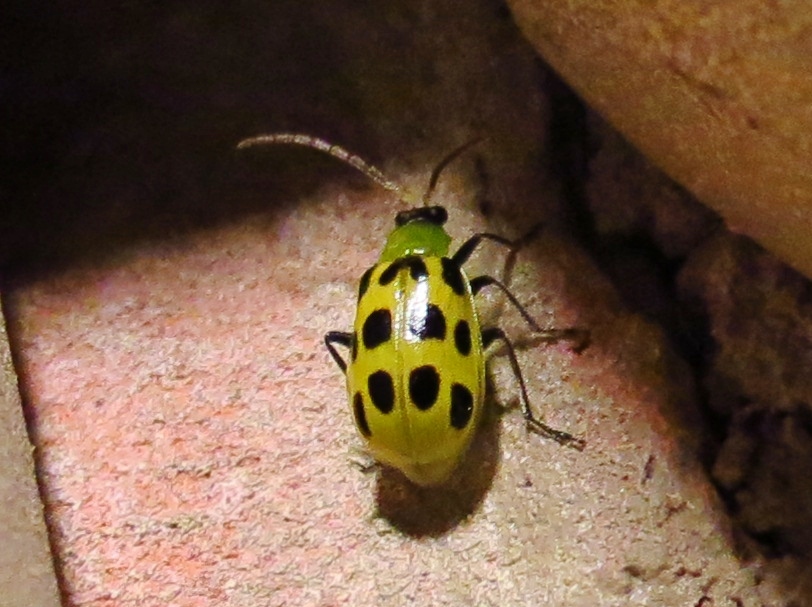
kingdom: Animalia
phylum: Arthropoda
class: Insecta
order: Coleoptera
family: Chrysomelidae
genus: Diabrotica
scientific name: Diabrotica undecimpunctata
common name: Spotted cucumber beetle
